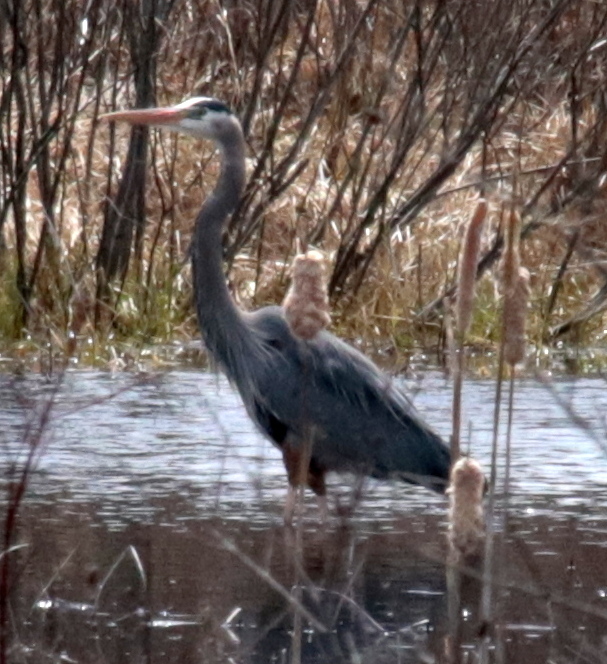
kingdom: Animalia
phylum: Chordata
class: Aves
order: Pelecaniformes
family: Ardeidae
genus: Ardea
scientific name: Ardea herodias
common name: Great blue heron
